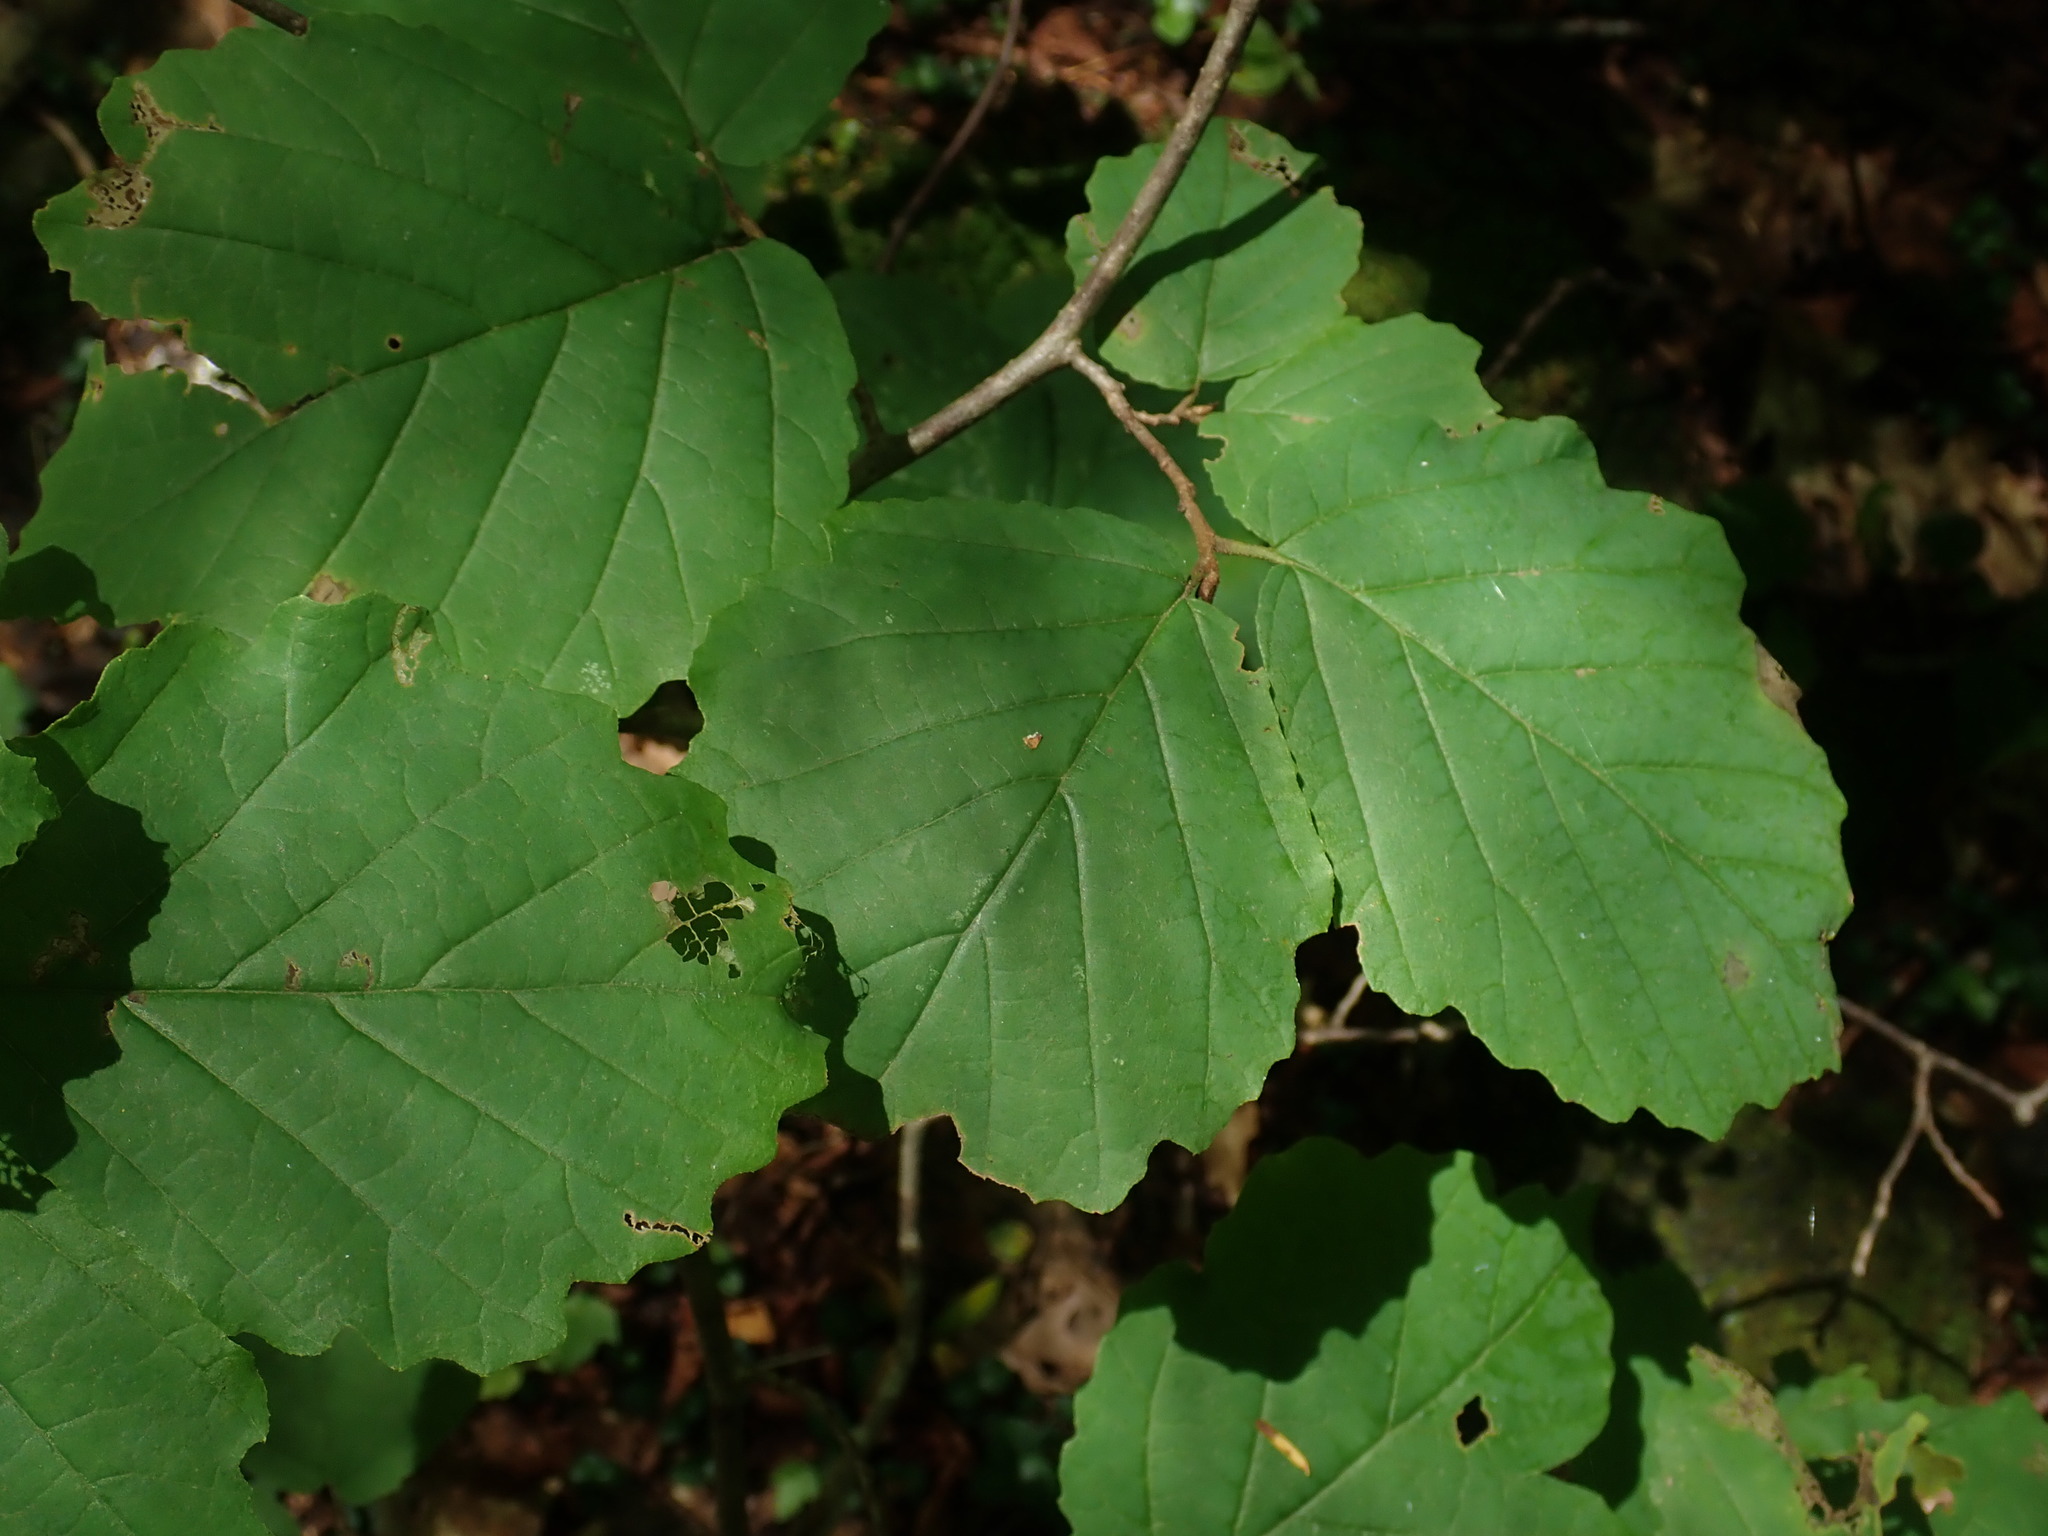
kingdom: Plantae
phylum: Tracheophyta
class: Magnoliopsida
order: Saxifragales
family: Hamamelidaceae
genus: Hamamelis
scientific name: Hamamelis virginiana
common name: Witch-hazel
